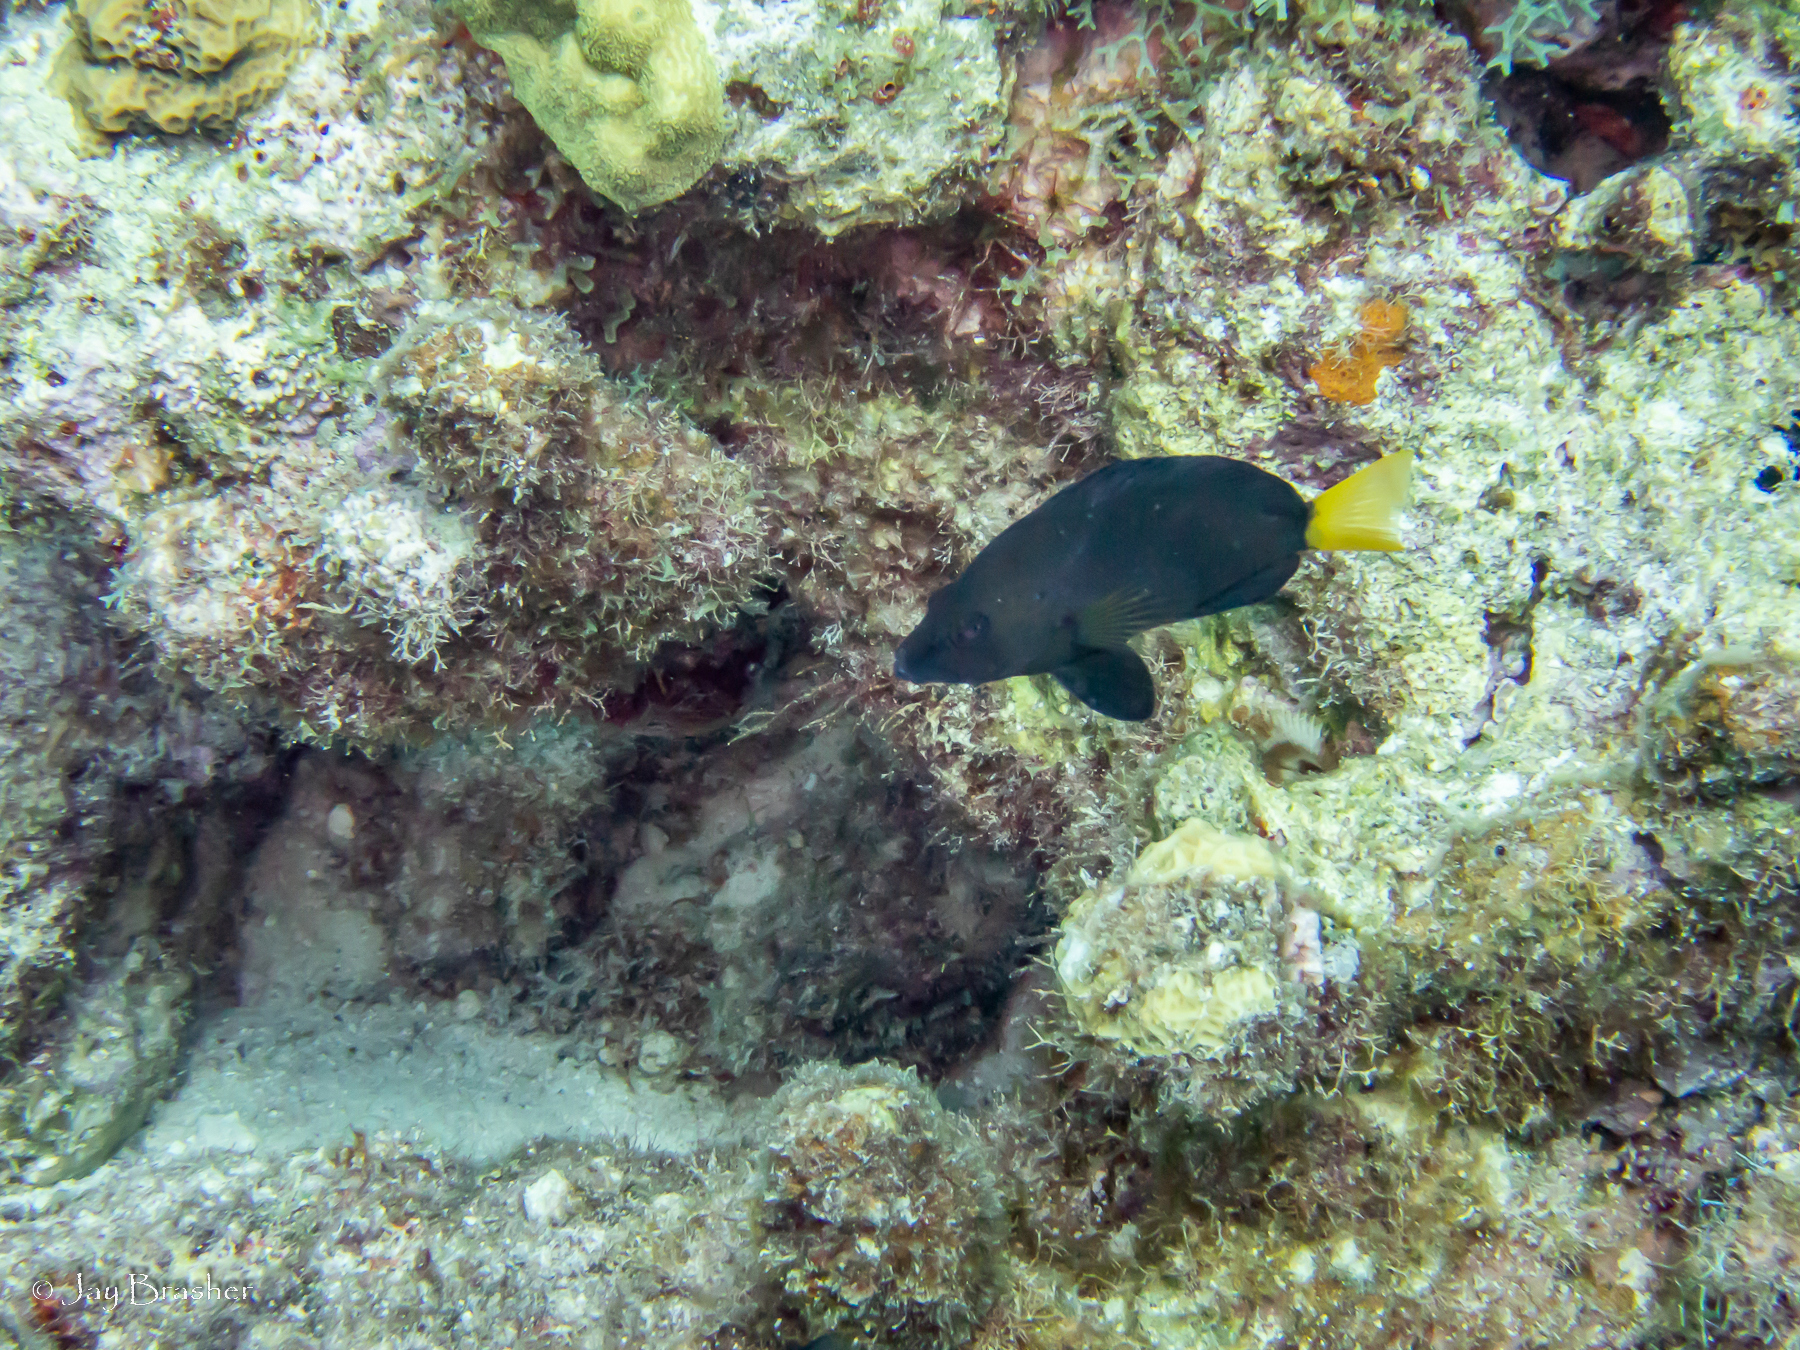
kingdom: Animalia
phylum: Chordata
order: Perciformes
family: Serranidae
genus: Hypoplectrus
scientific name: Hypoplectrus chlorurus
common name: Yellowtail hamlet
